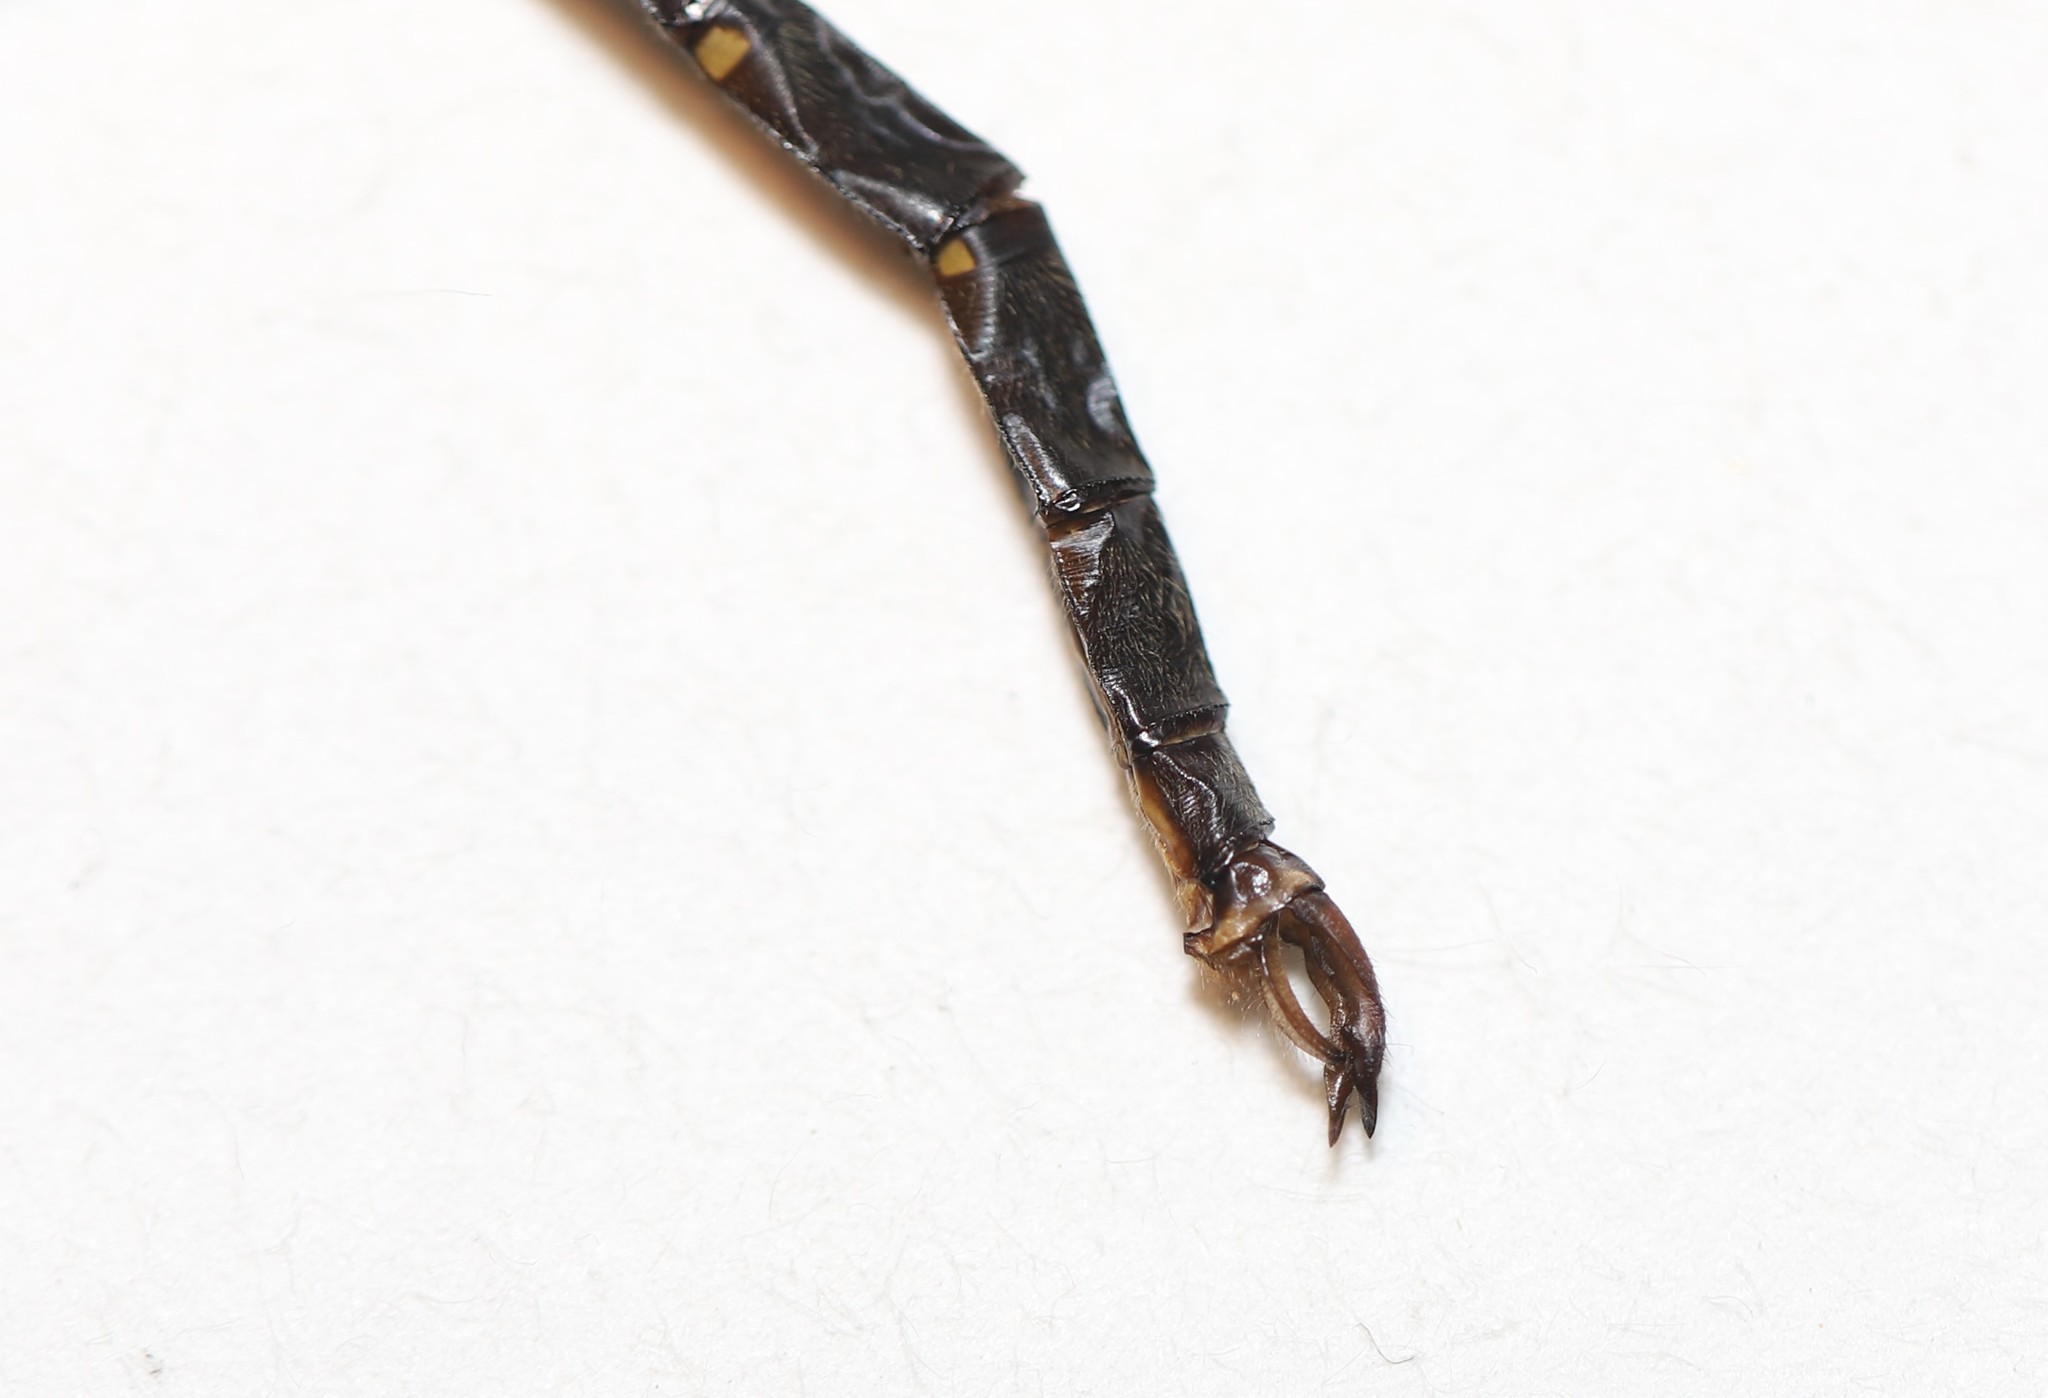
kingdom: Animalia
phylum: Arthropoda
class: Insecta
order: Odonata
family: Corduliidae
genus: Somatochlora
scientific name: Somatochlora forcipata
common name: Forcipate emerald
